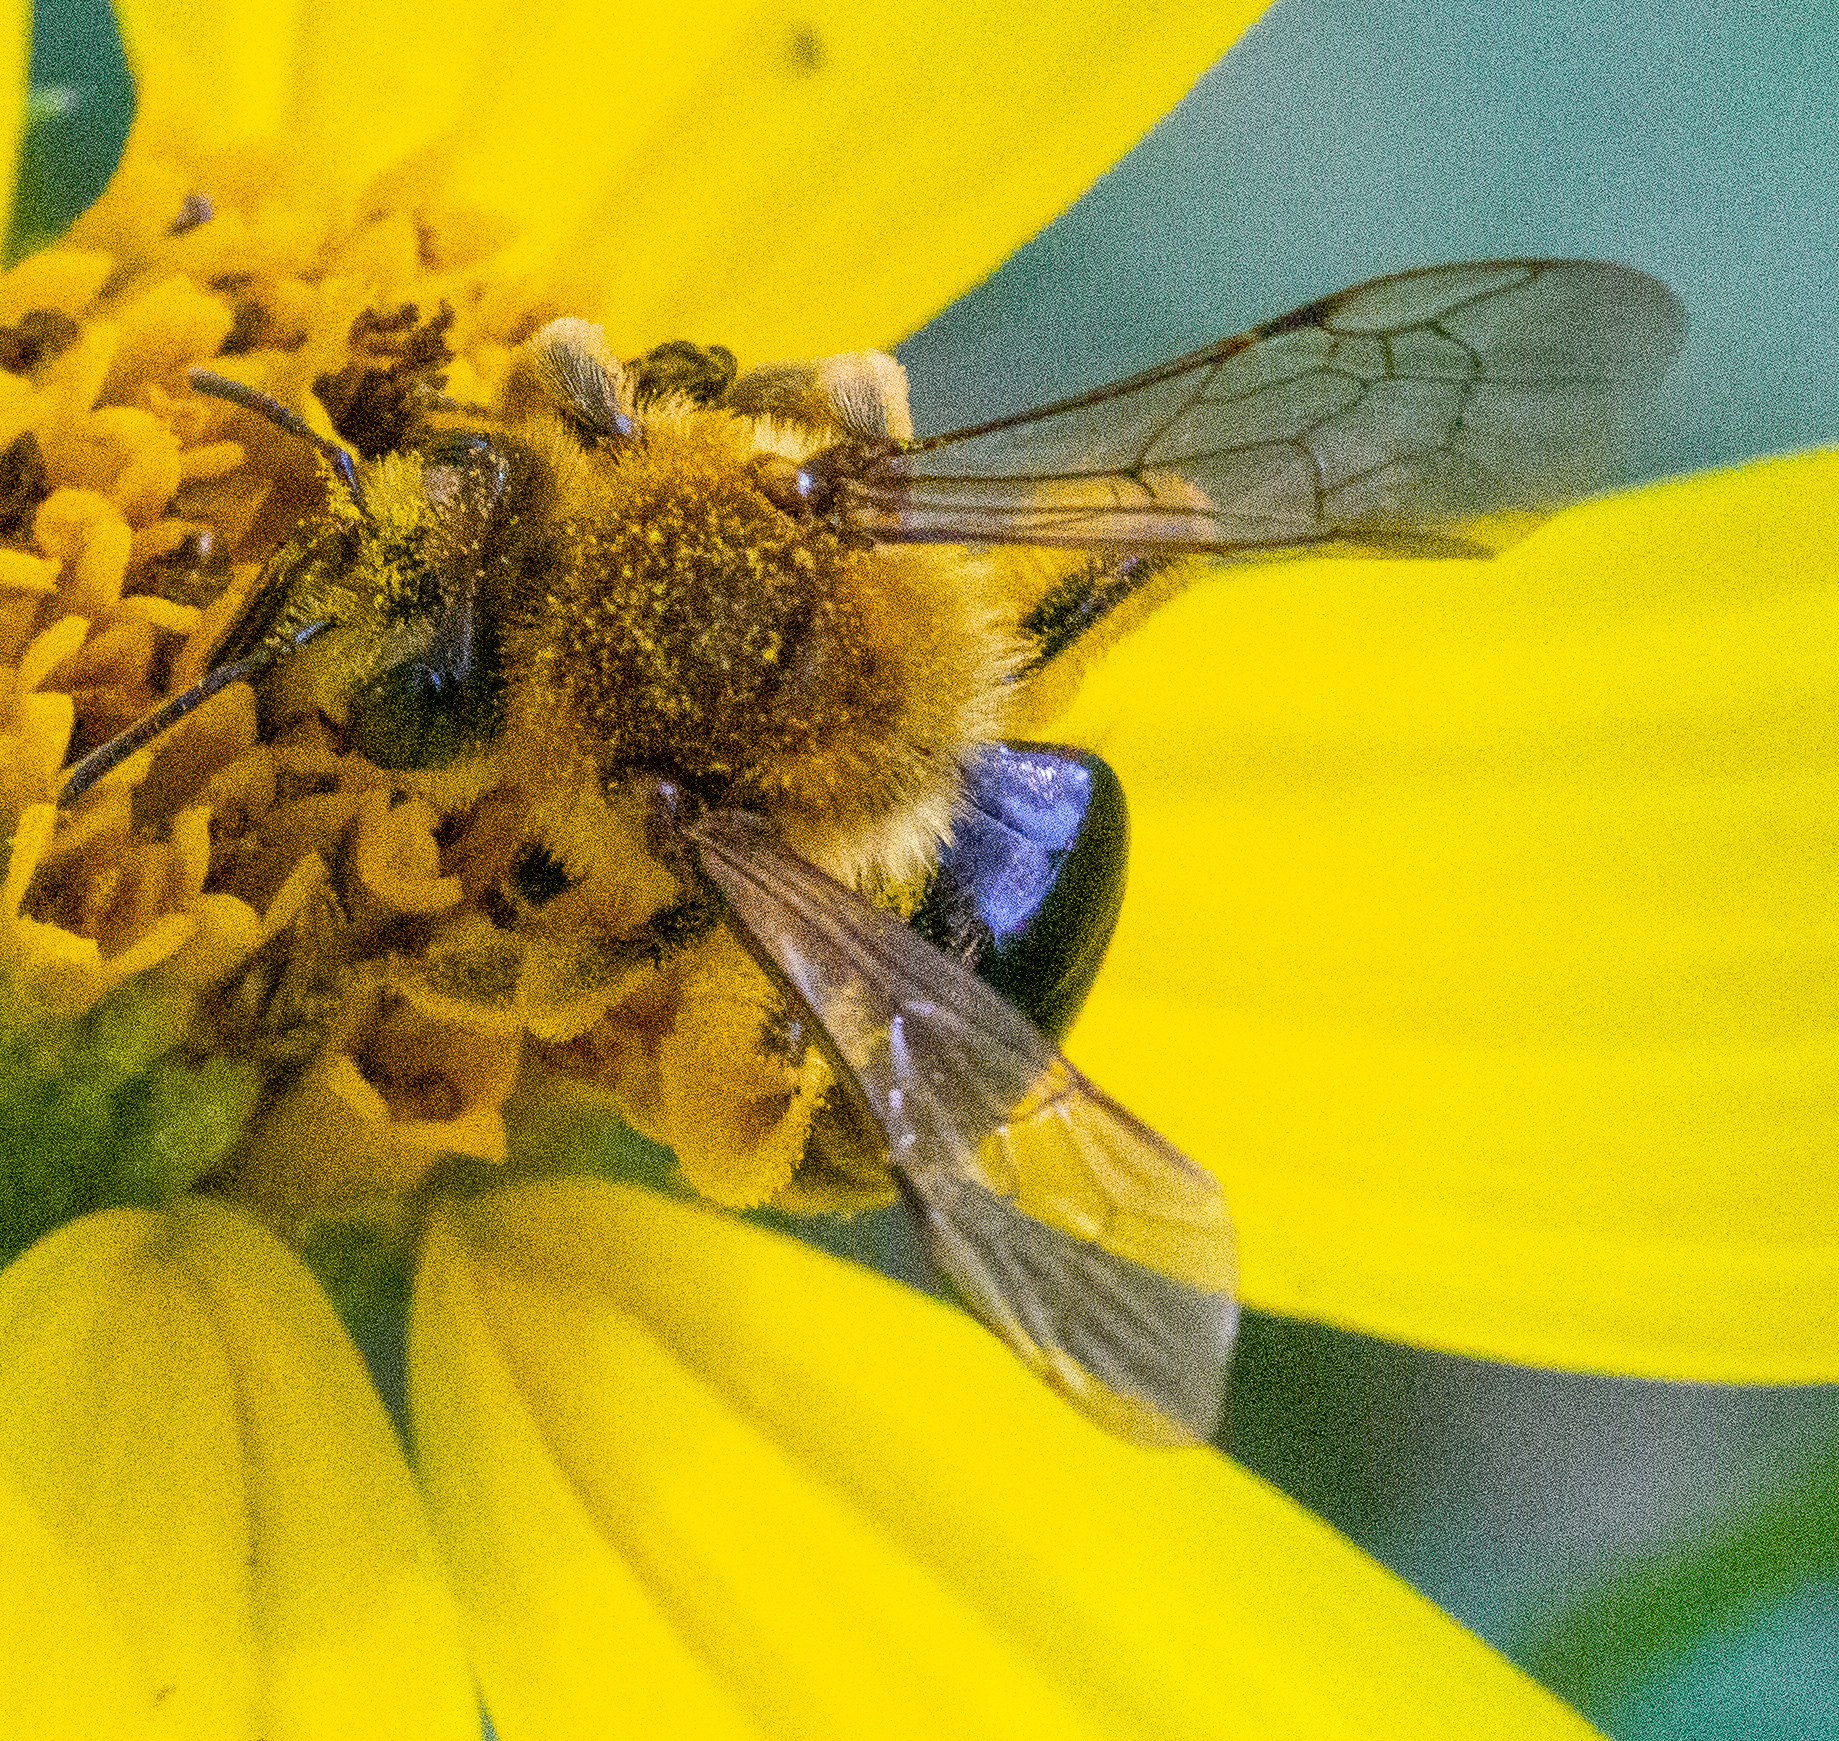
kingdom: Animalia
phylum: Arthropoda
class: Insecta
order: Hymenoptera
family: Andrenidae
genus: Andrena
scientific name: Andrena helianthi
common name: Sunflower mining bee
